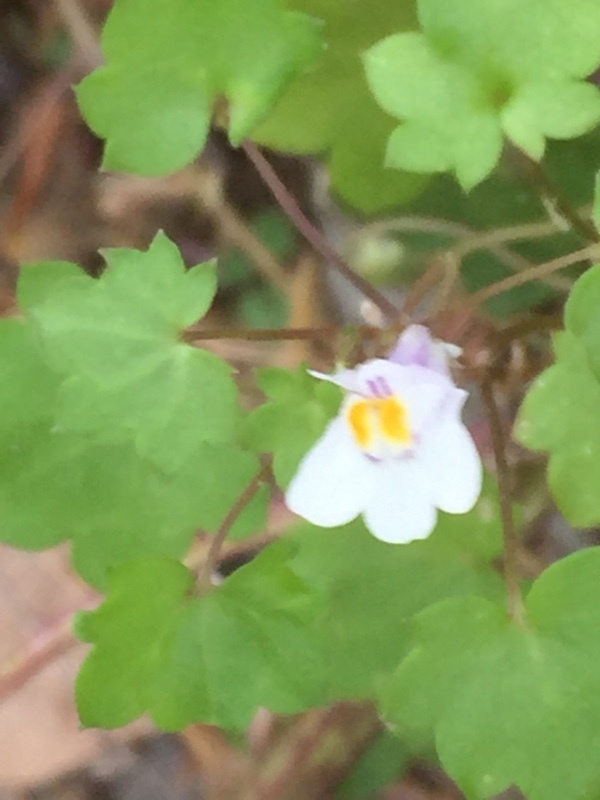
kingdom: Plantae
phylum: Tracheophyta
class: Magnoliopsida
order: Lamiales
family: Plantaginaceae
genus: Cymbalaria
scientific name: Cymbalaria muralis
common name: Ivy-leaved toadflax
